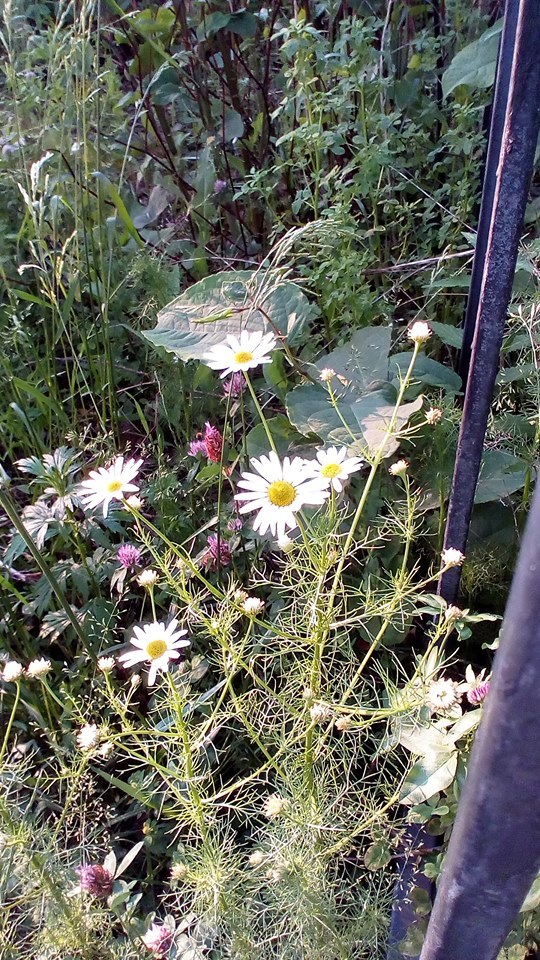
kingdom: Plantae
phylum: Tracheophyta
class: Magnoliopsida
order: Asterales
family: Asteraceae
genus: Tripleurospermum
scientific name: Tripleurospermum inodorum
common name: Scentless mayweed
